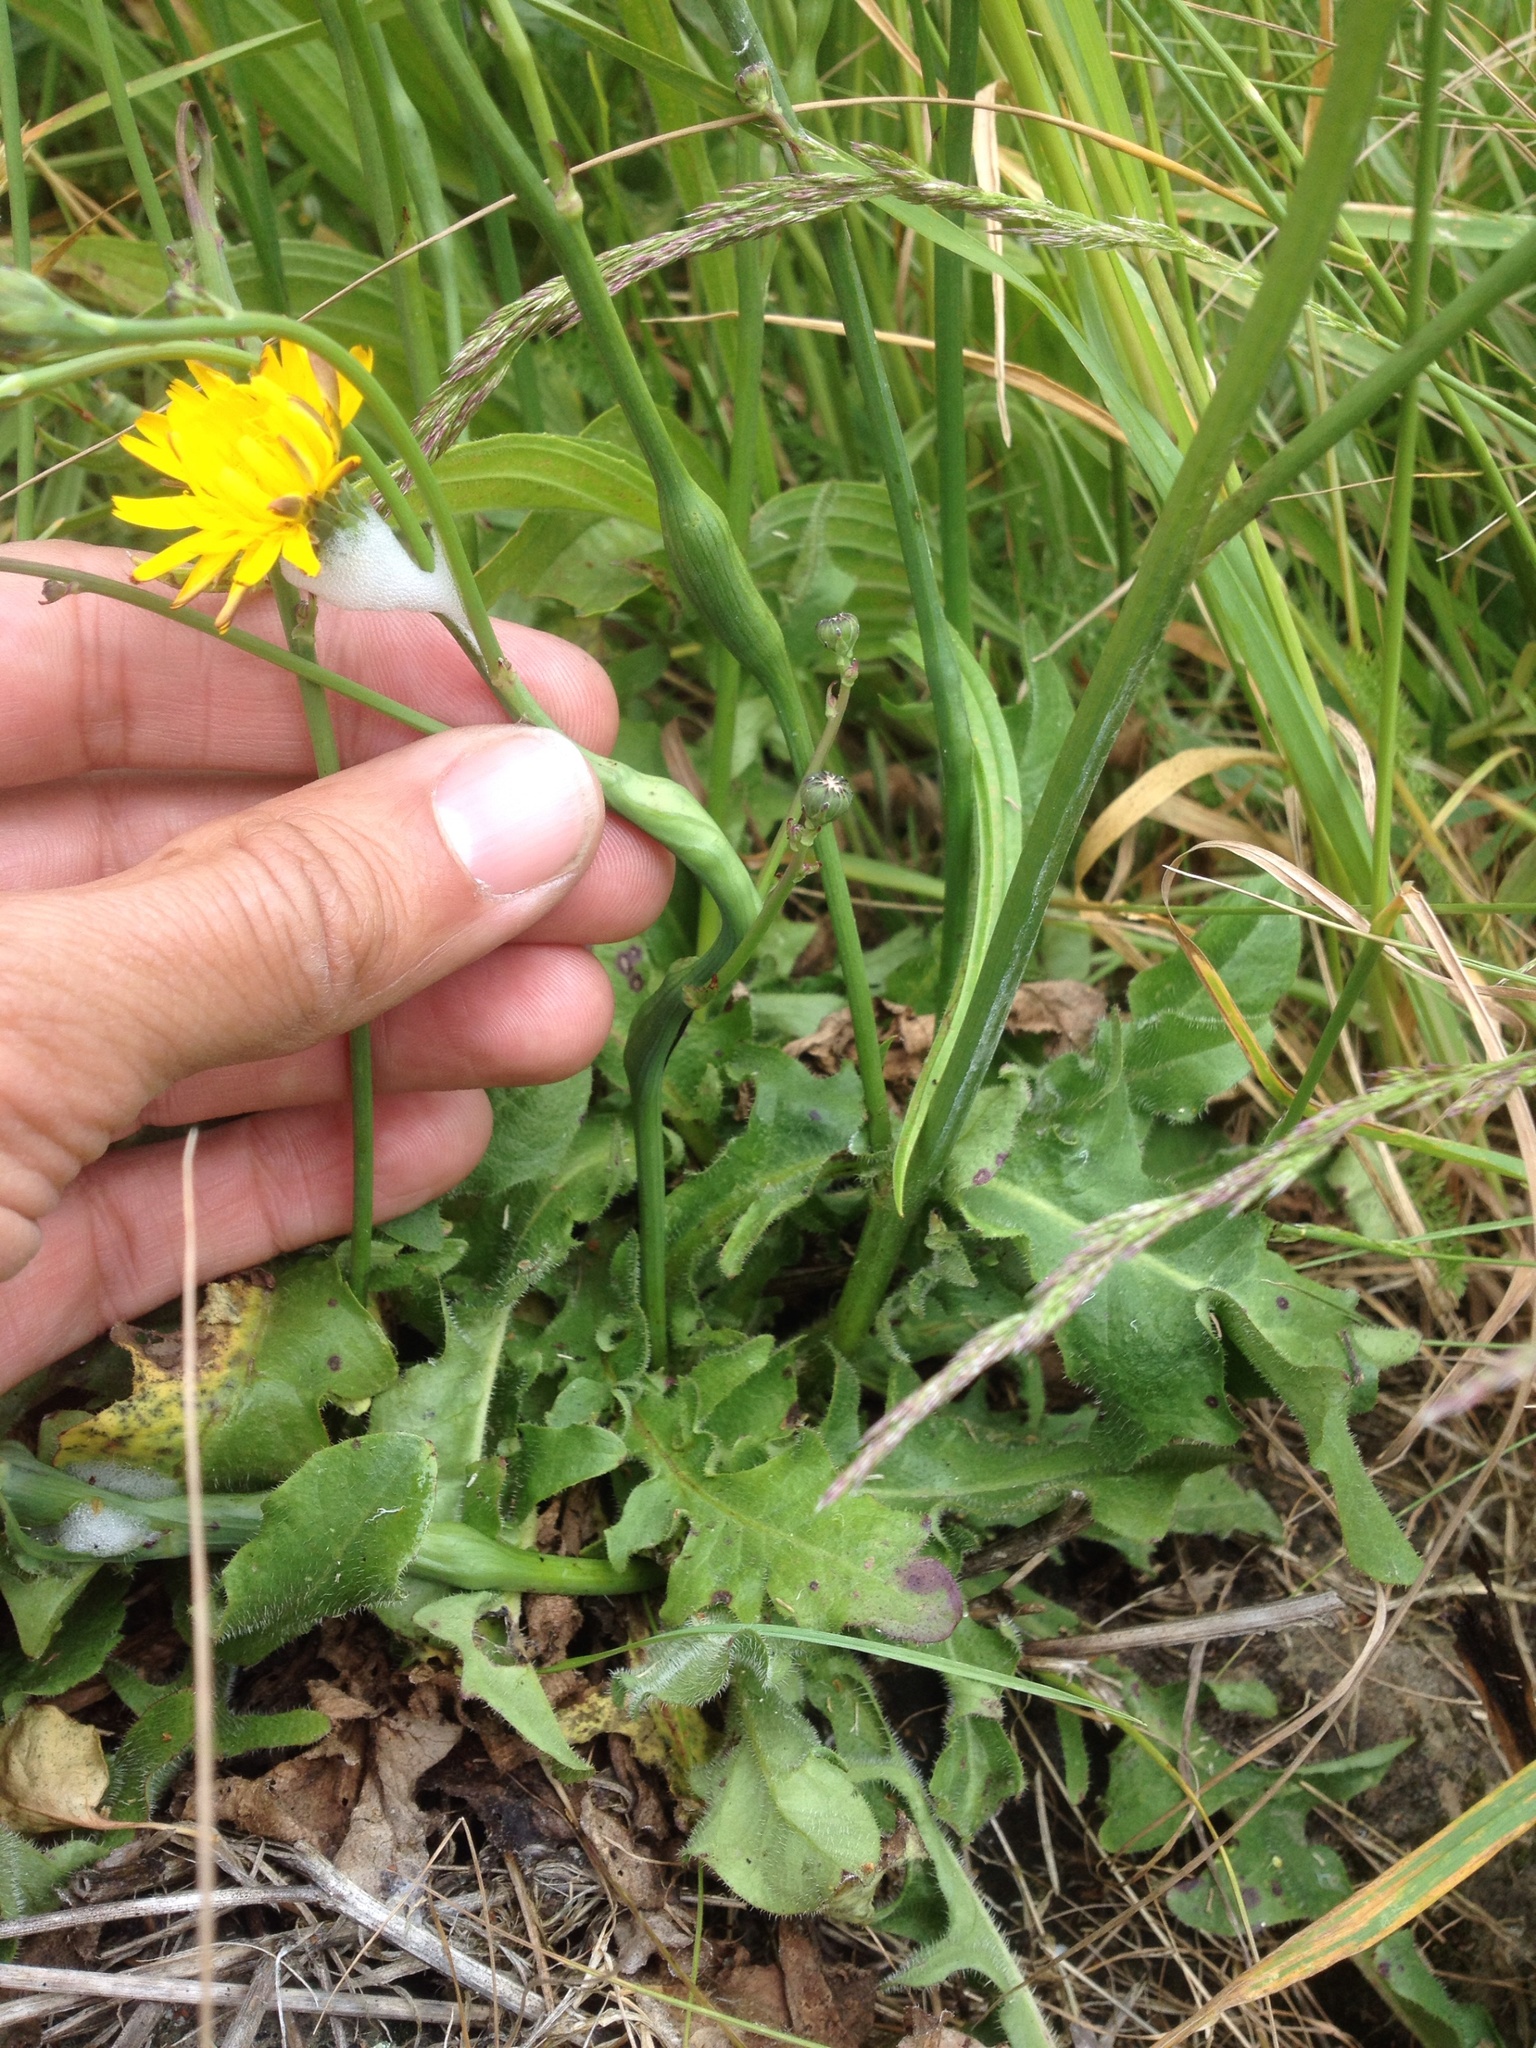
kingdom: Animalia
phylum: Arthropoda
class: Insecta
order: Hymenoptera
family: Cynipidae
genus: Phanacis
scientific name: Phanacis hypochoeridis
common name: Gall wasp
